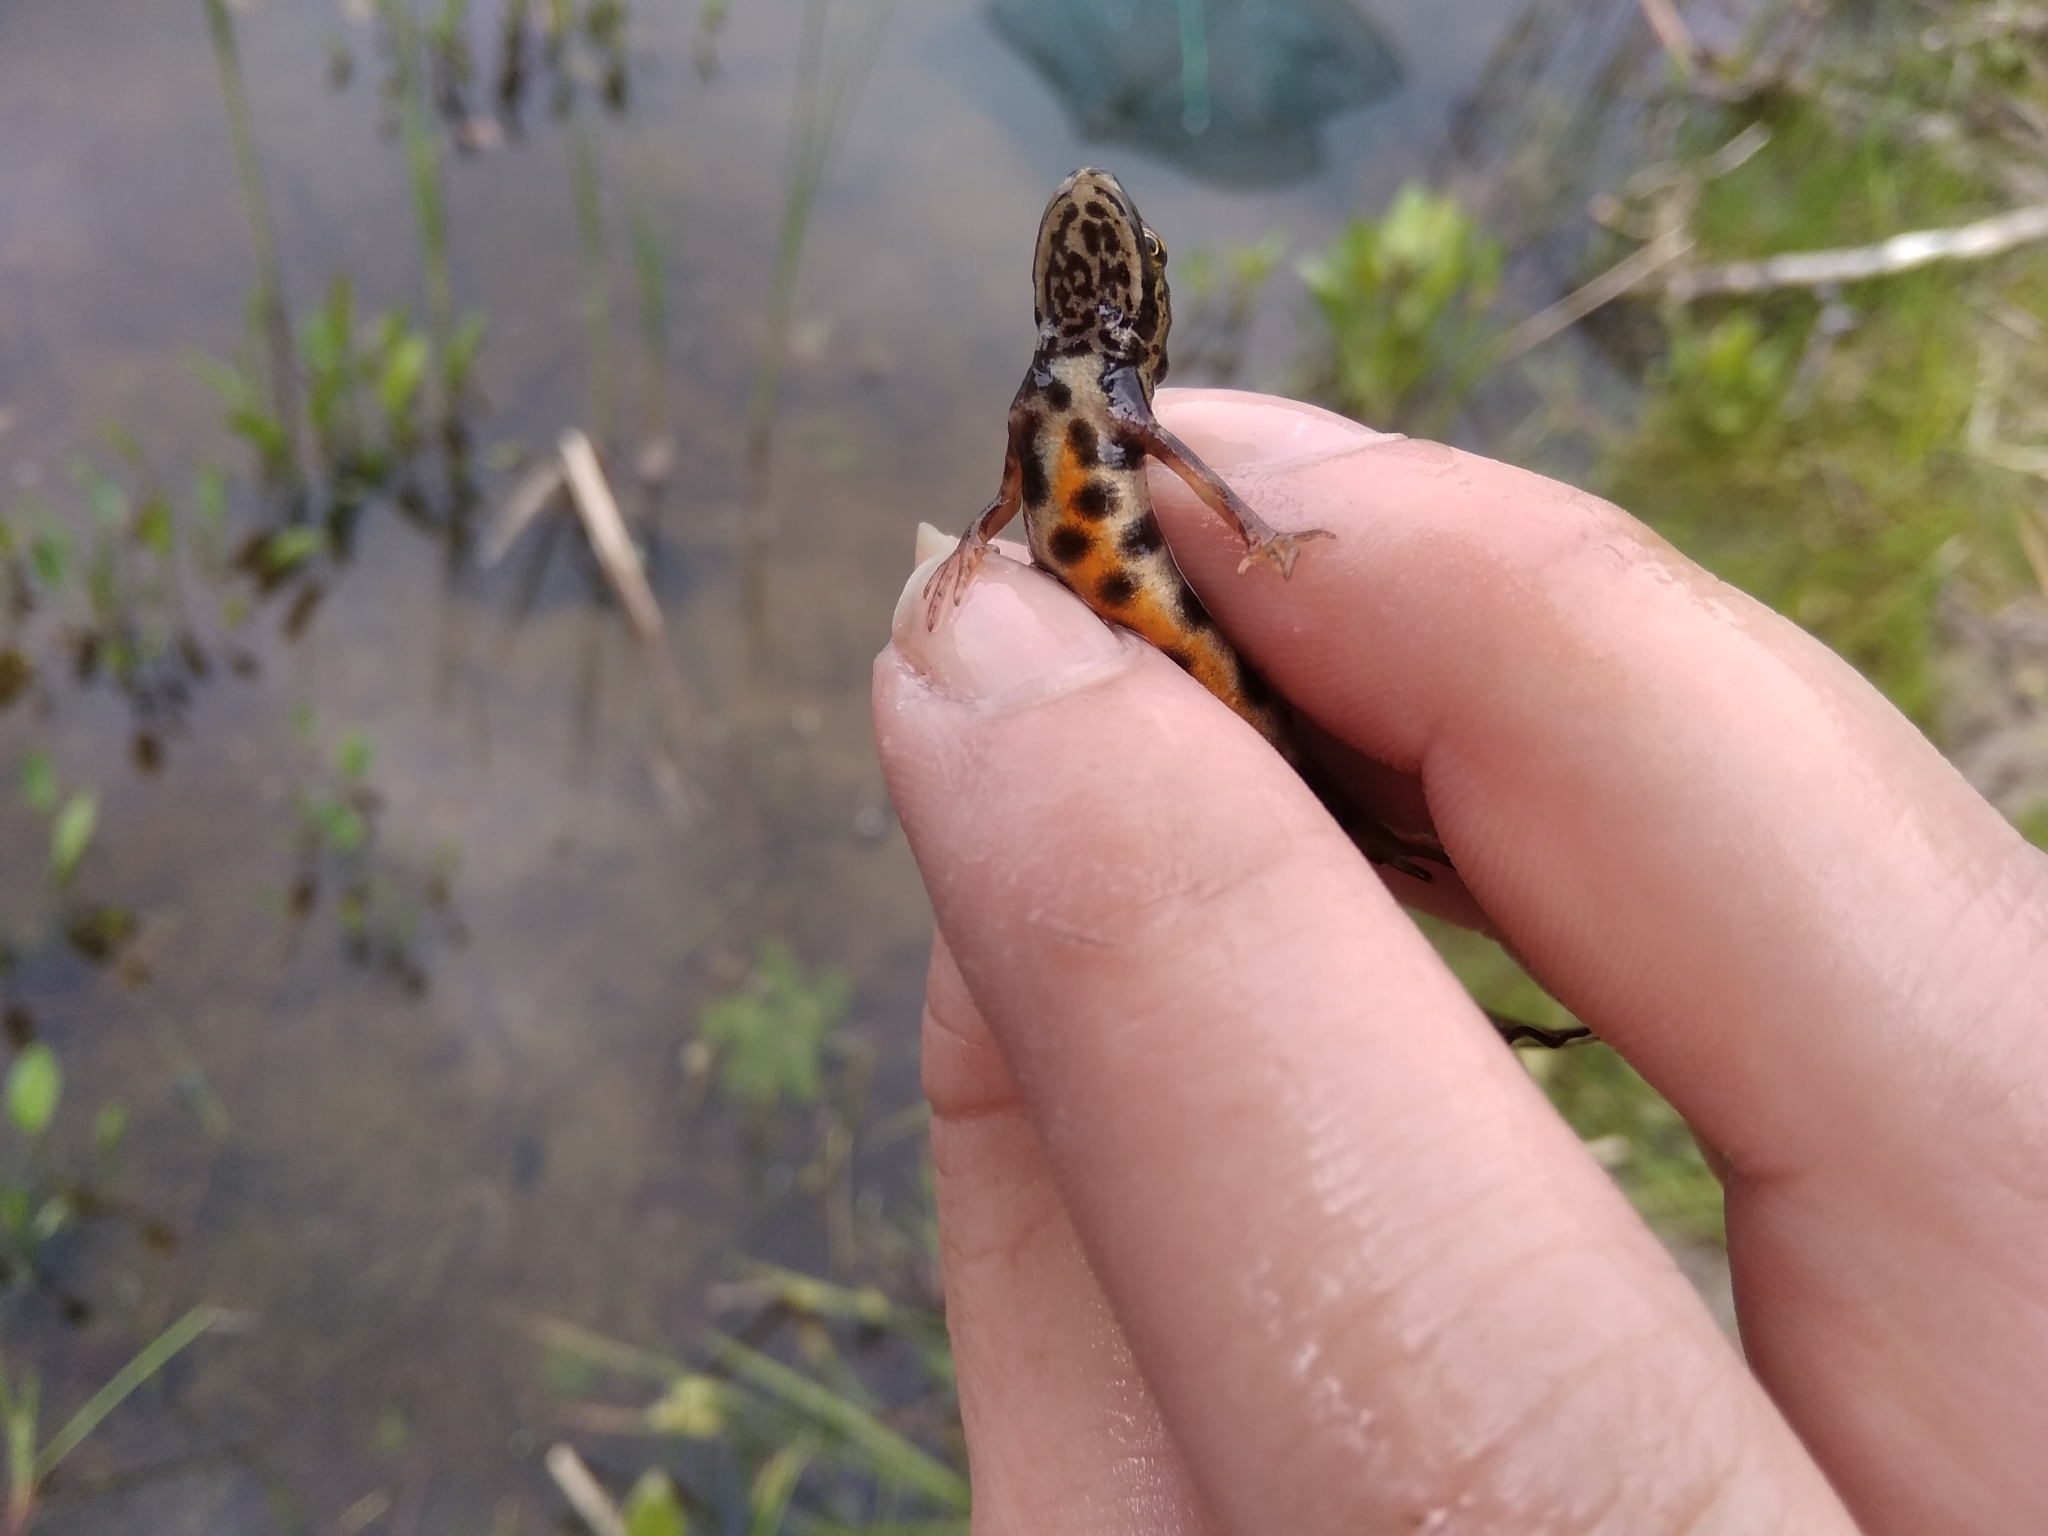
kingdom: Animalia
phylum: Chordata
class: Amphibia
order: Caudata
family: Salamandridae
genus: Lissotriton
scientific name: Lissotriton vulgaris
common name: Smooth newt
